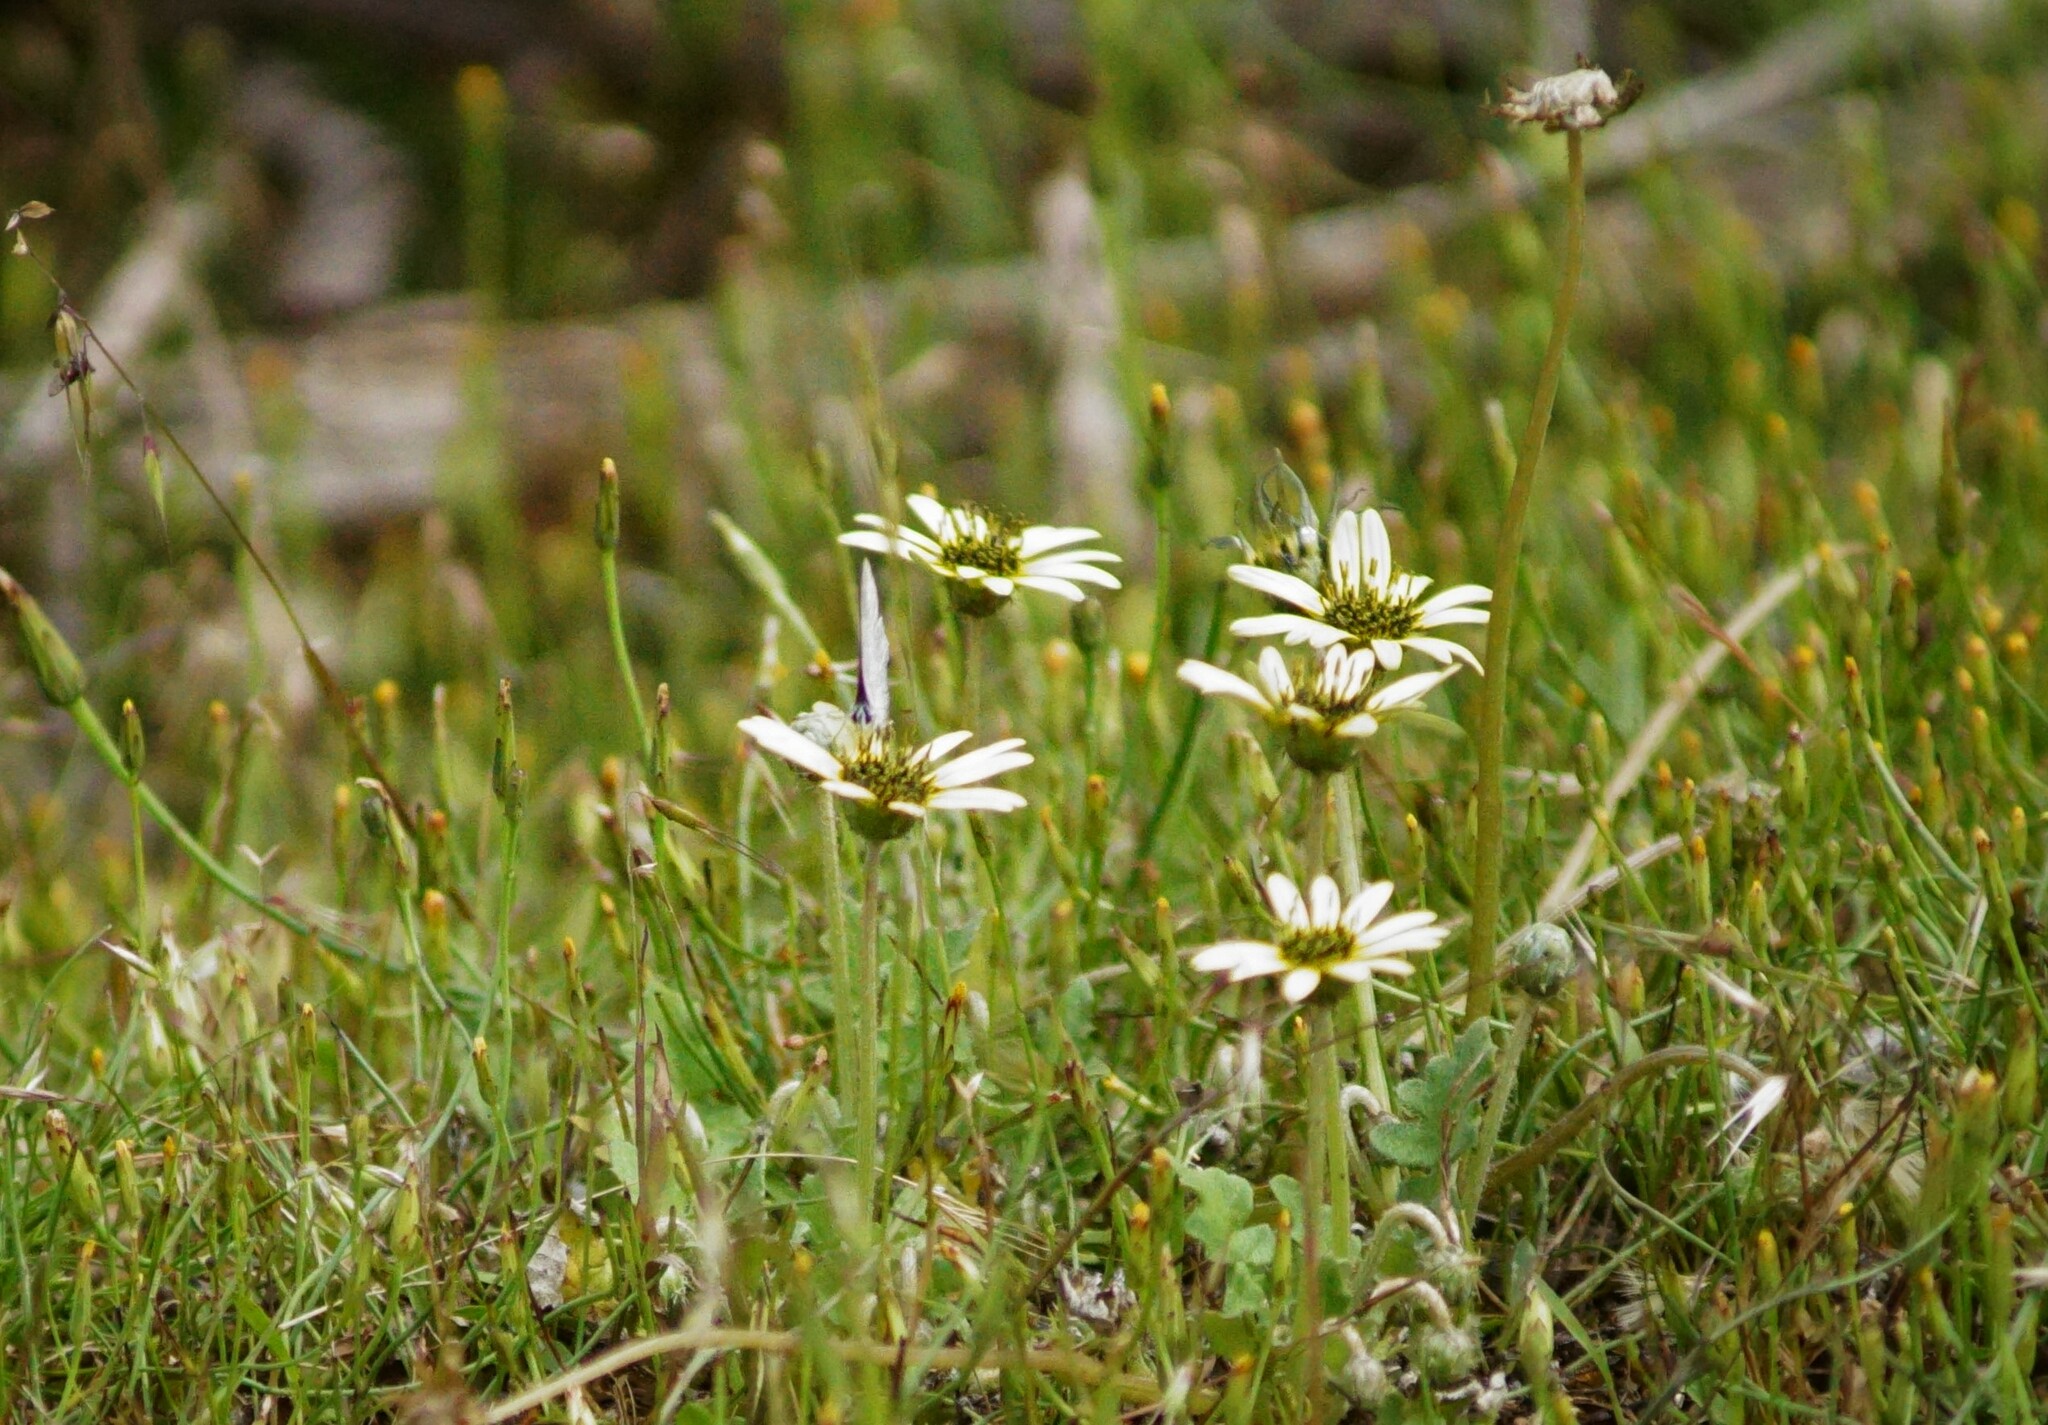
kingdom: Plantae
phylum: Tracheophyta
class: Magnoliopsida
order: Asterales
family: Asteraceae
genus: Arctotheca
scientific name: Arctotheca calendula
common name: Capeweed
